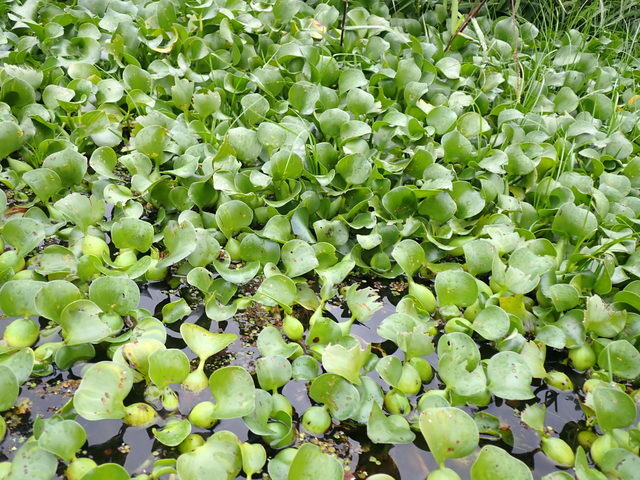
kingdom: Plantae
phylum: Tracheophyta
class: Liliopsida
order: Commelinales
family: Pontederiaceae
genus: Pontederia
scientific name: Pontederia crassipes
